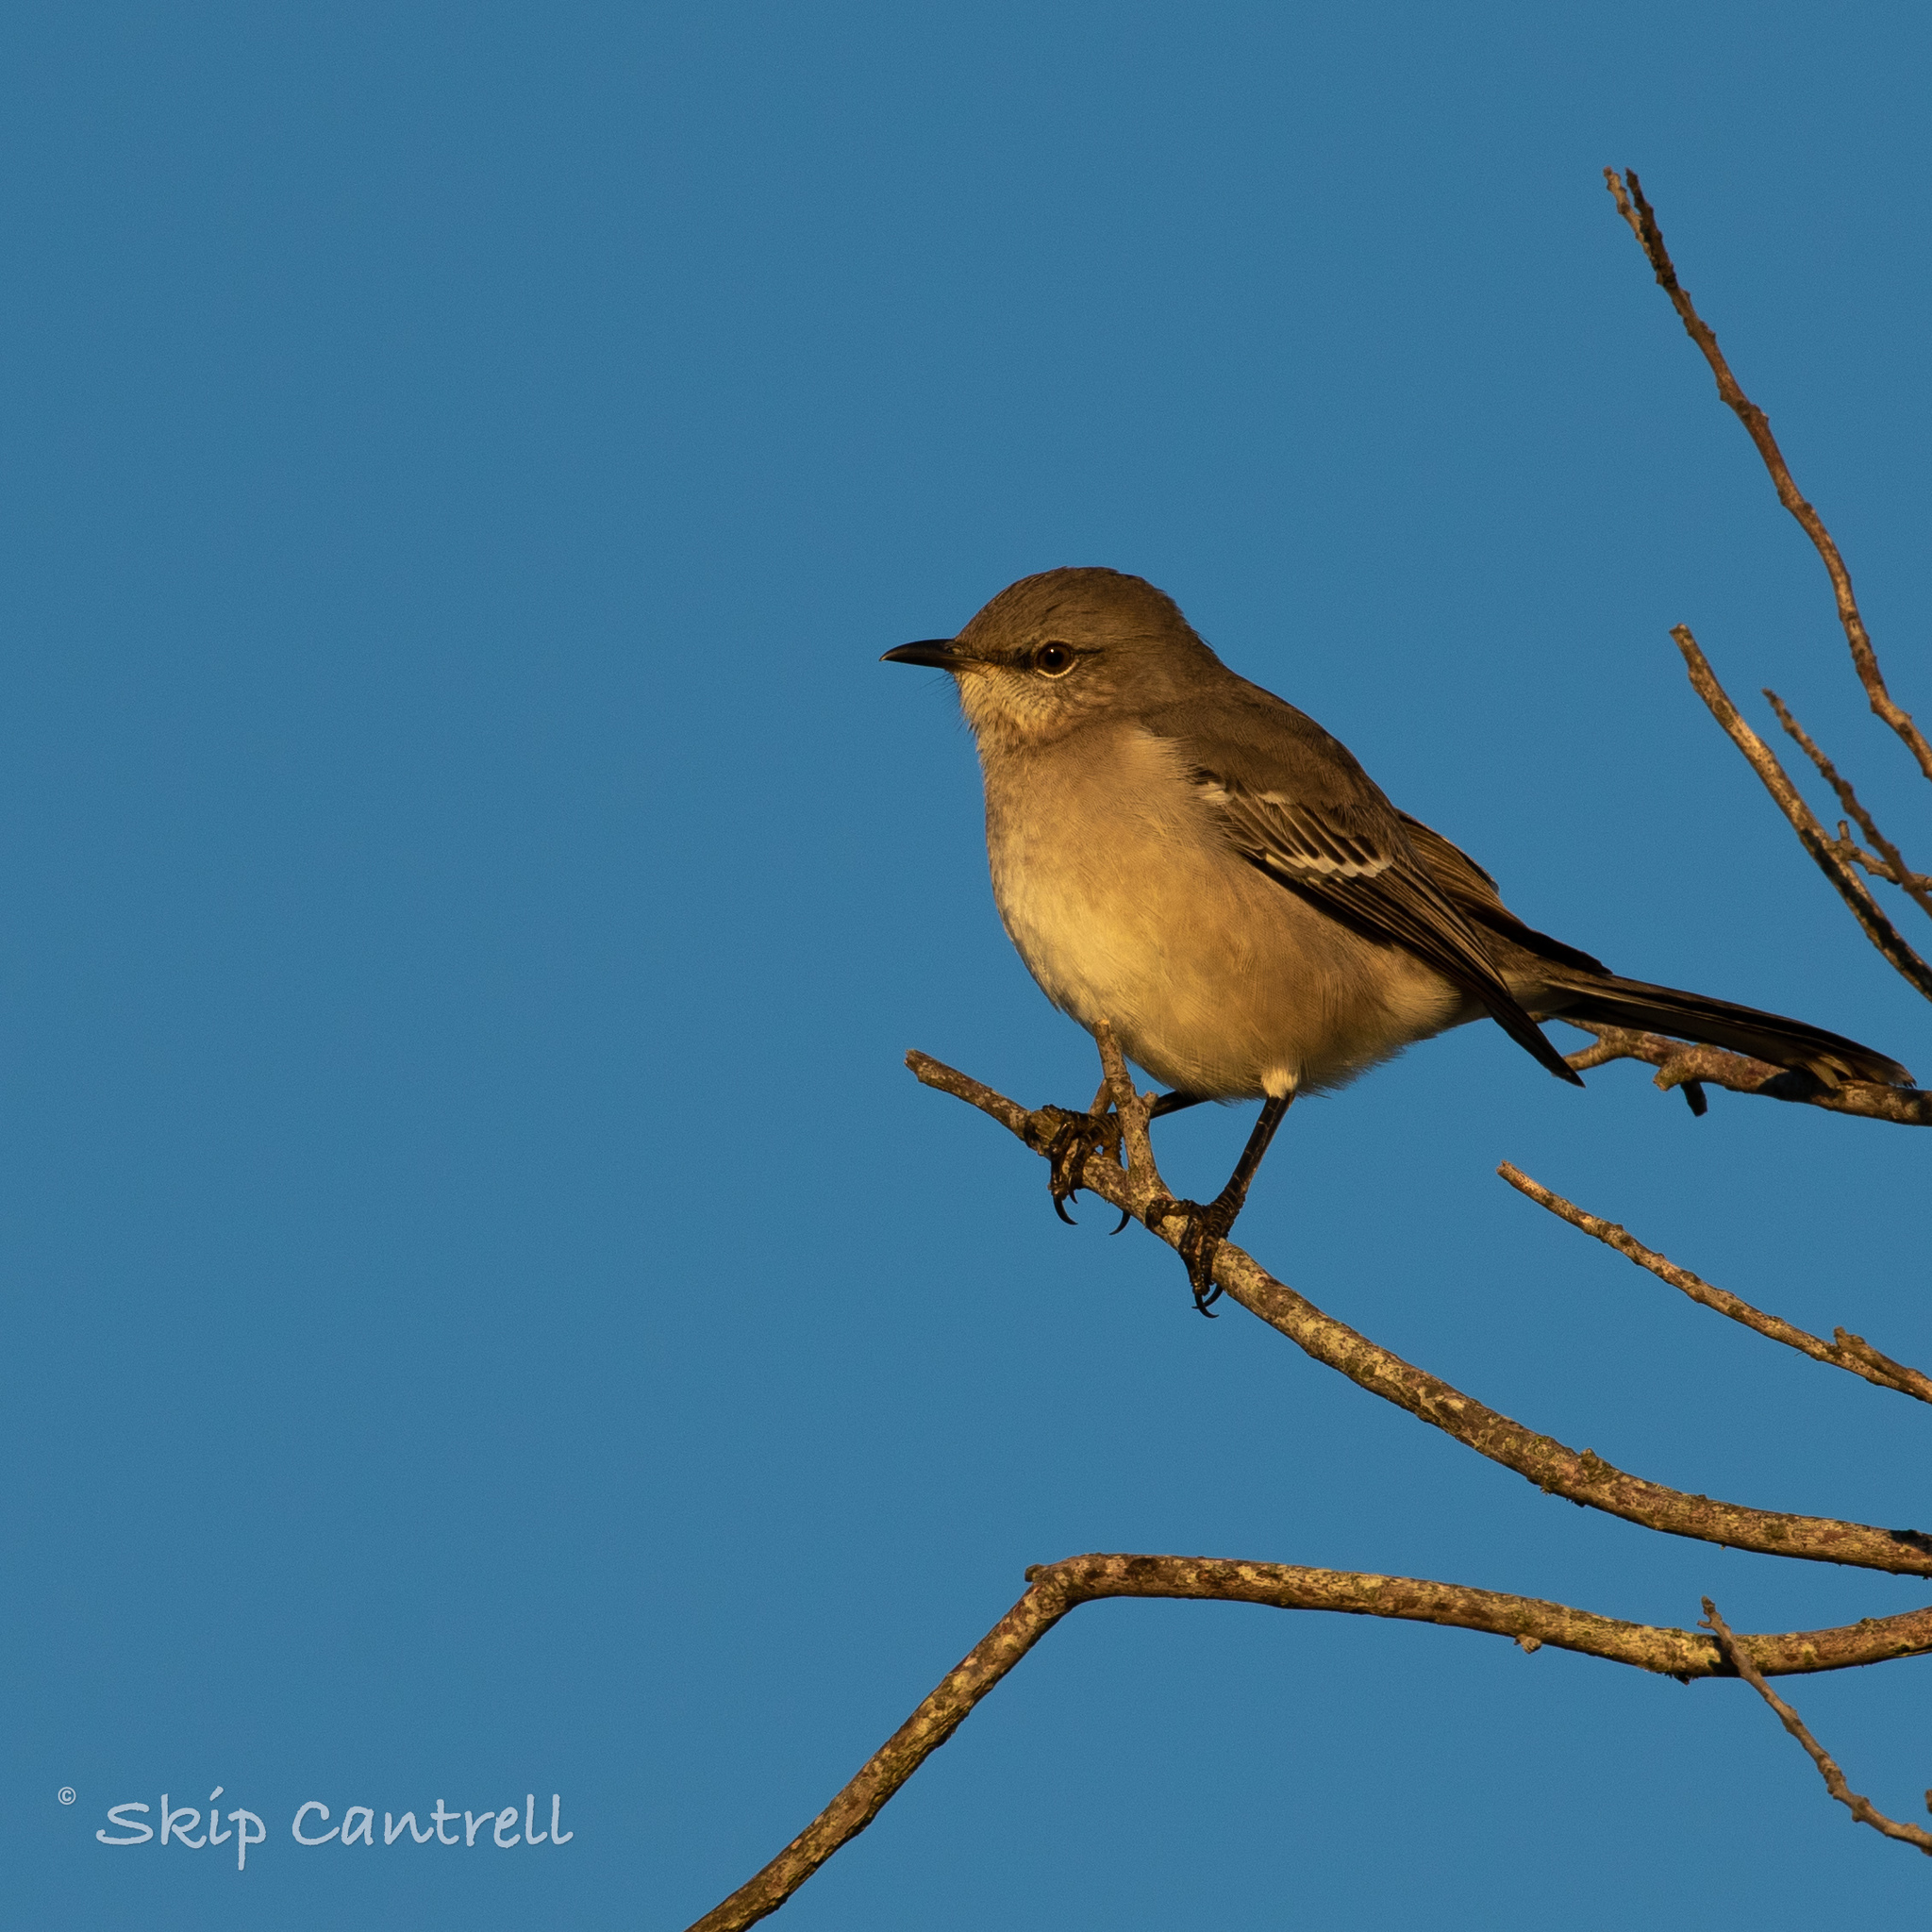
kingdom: Animalia
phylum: Chordata
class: Aves
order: Passeriformes
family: Mimidae
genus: Mimus
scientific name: Mimus polyglottos
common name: Northern mockingbird
